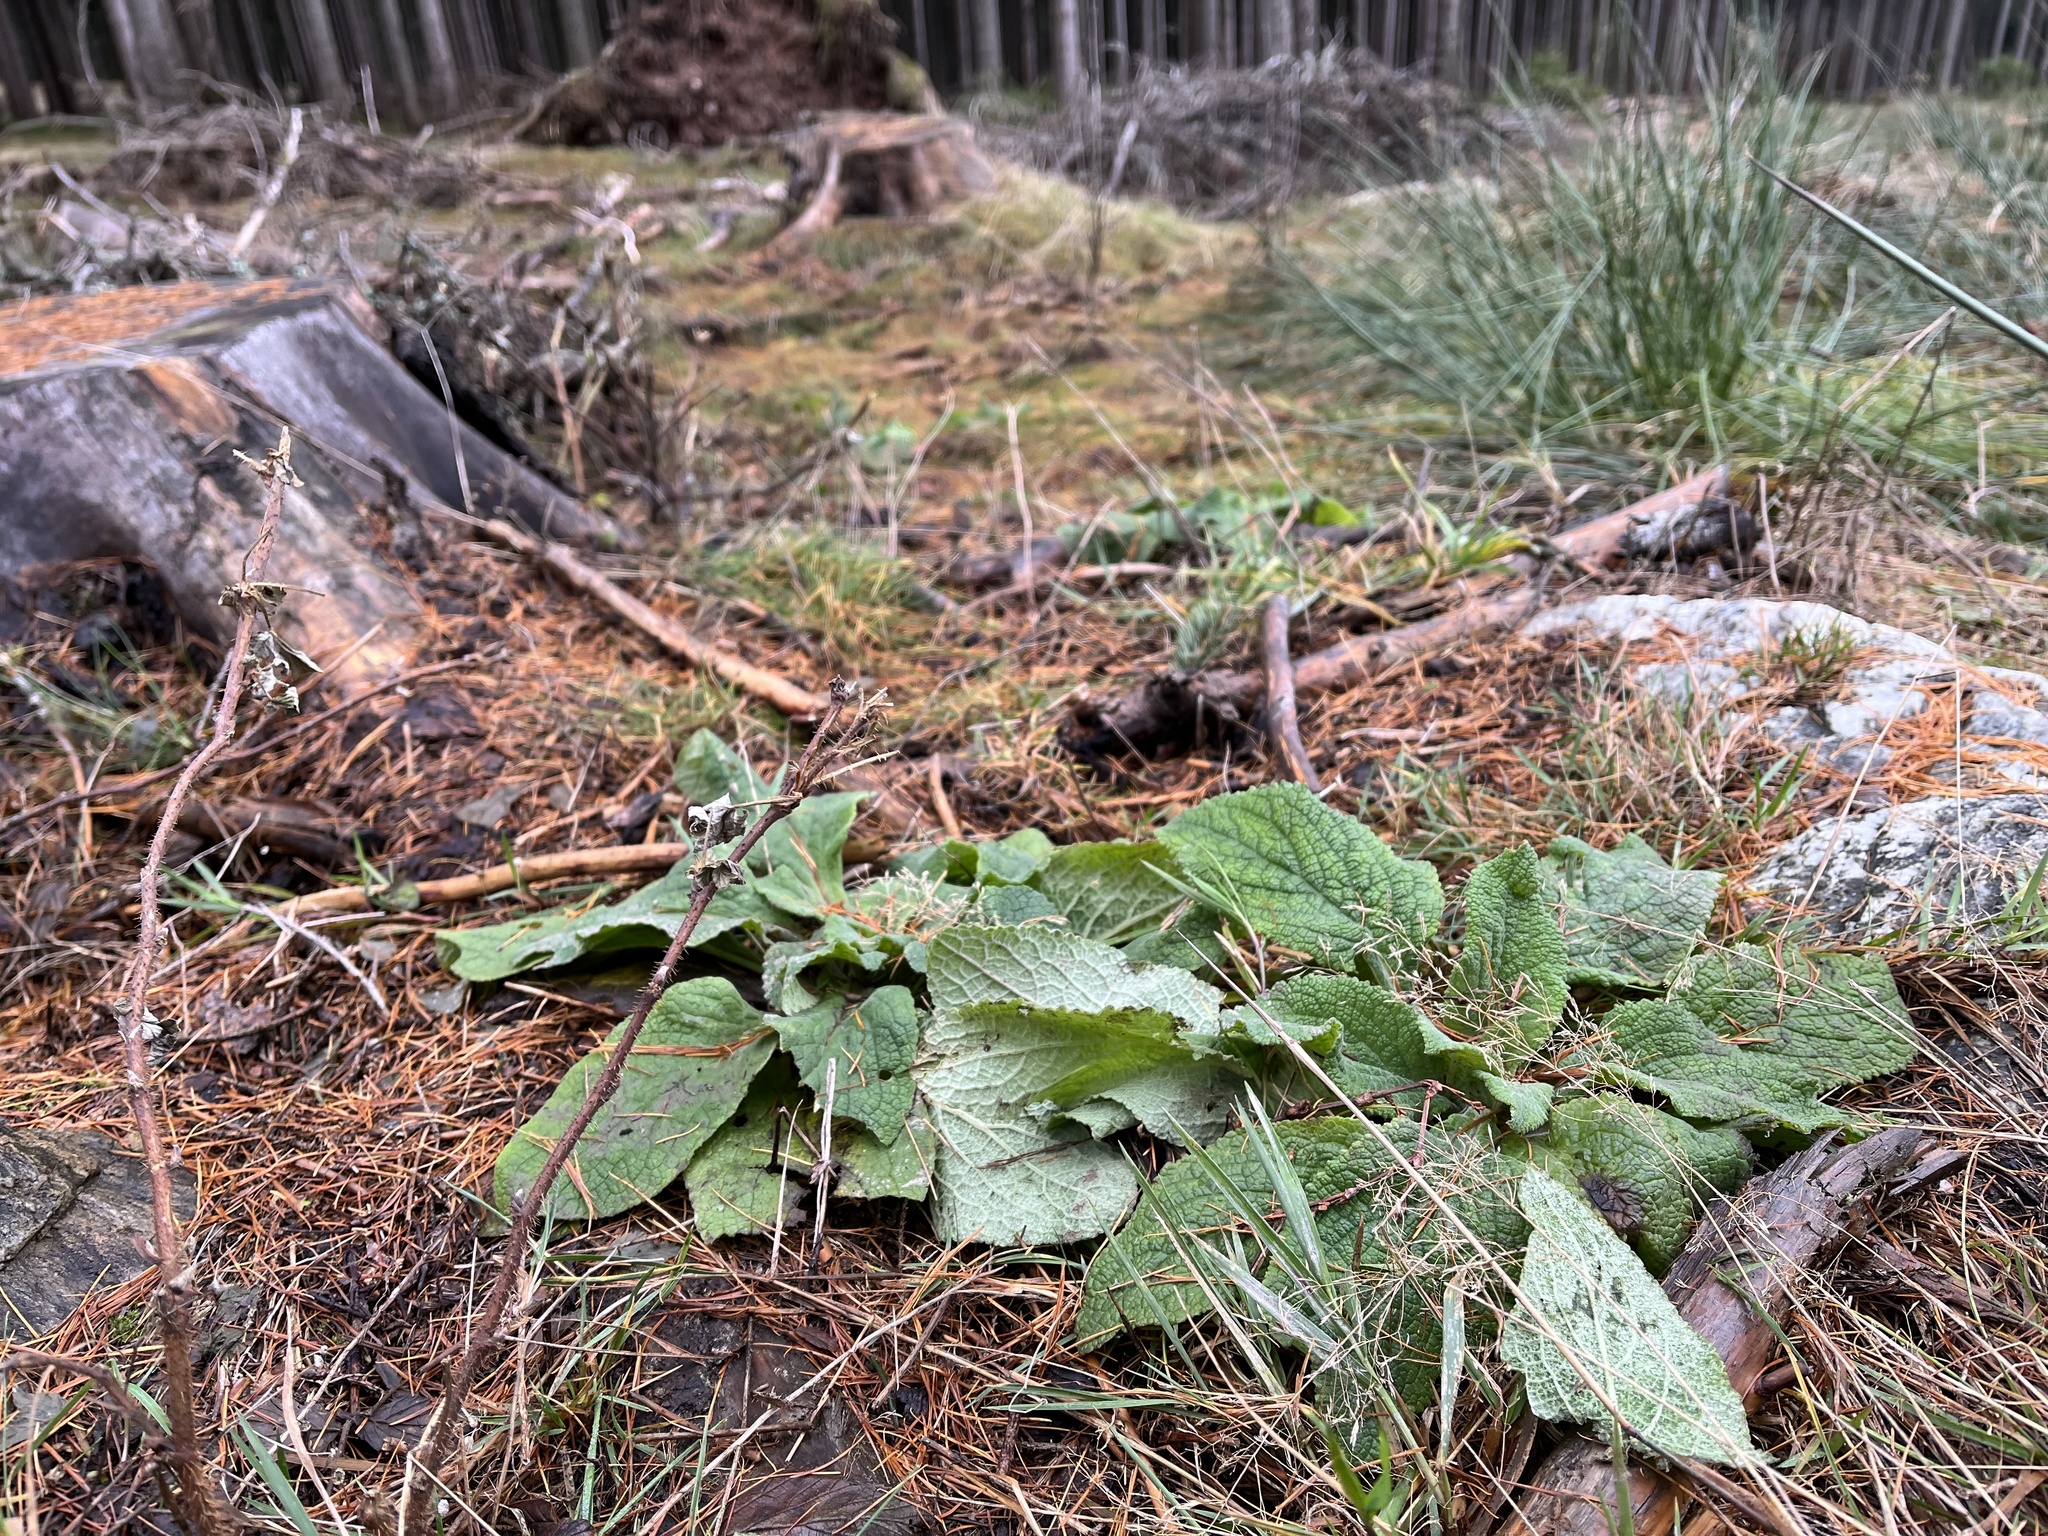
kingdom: Plantae
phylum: Tracheophyta
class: Magnoliopsida
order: Lamiales
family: Plantaginaceae
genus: Digitalis
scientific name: Digitalis purpurea
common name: Foxglove
